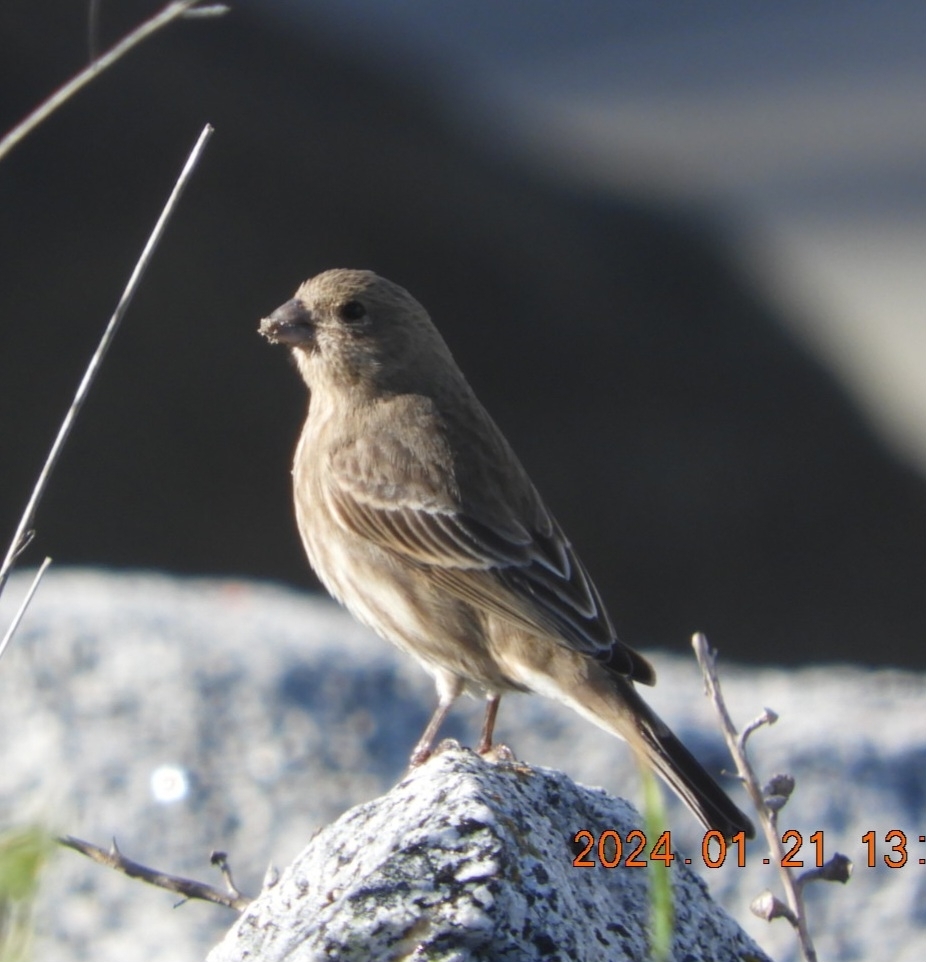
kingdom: Animalia
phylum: Chordata
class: Aves
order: Passeriformes
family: Fringillidae
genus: Haemorhous
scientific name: Haemorhous mexicanus
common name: House finch
